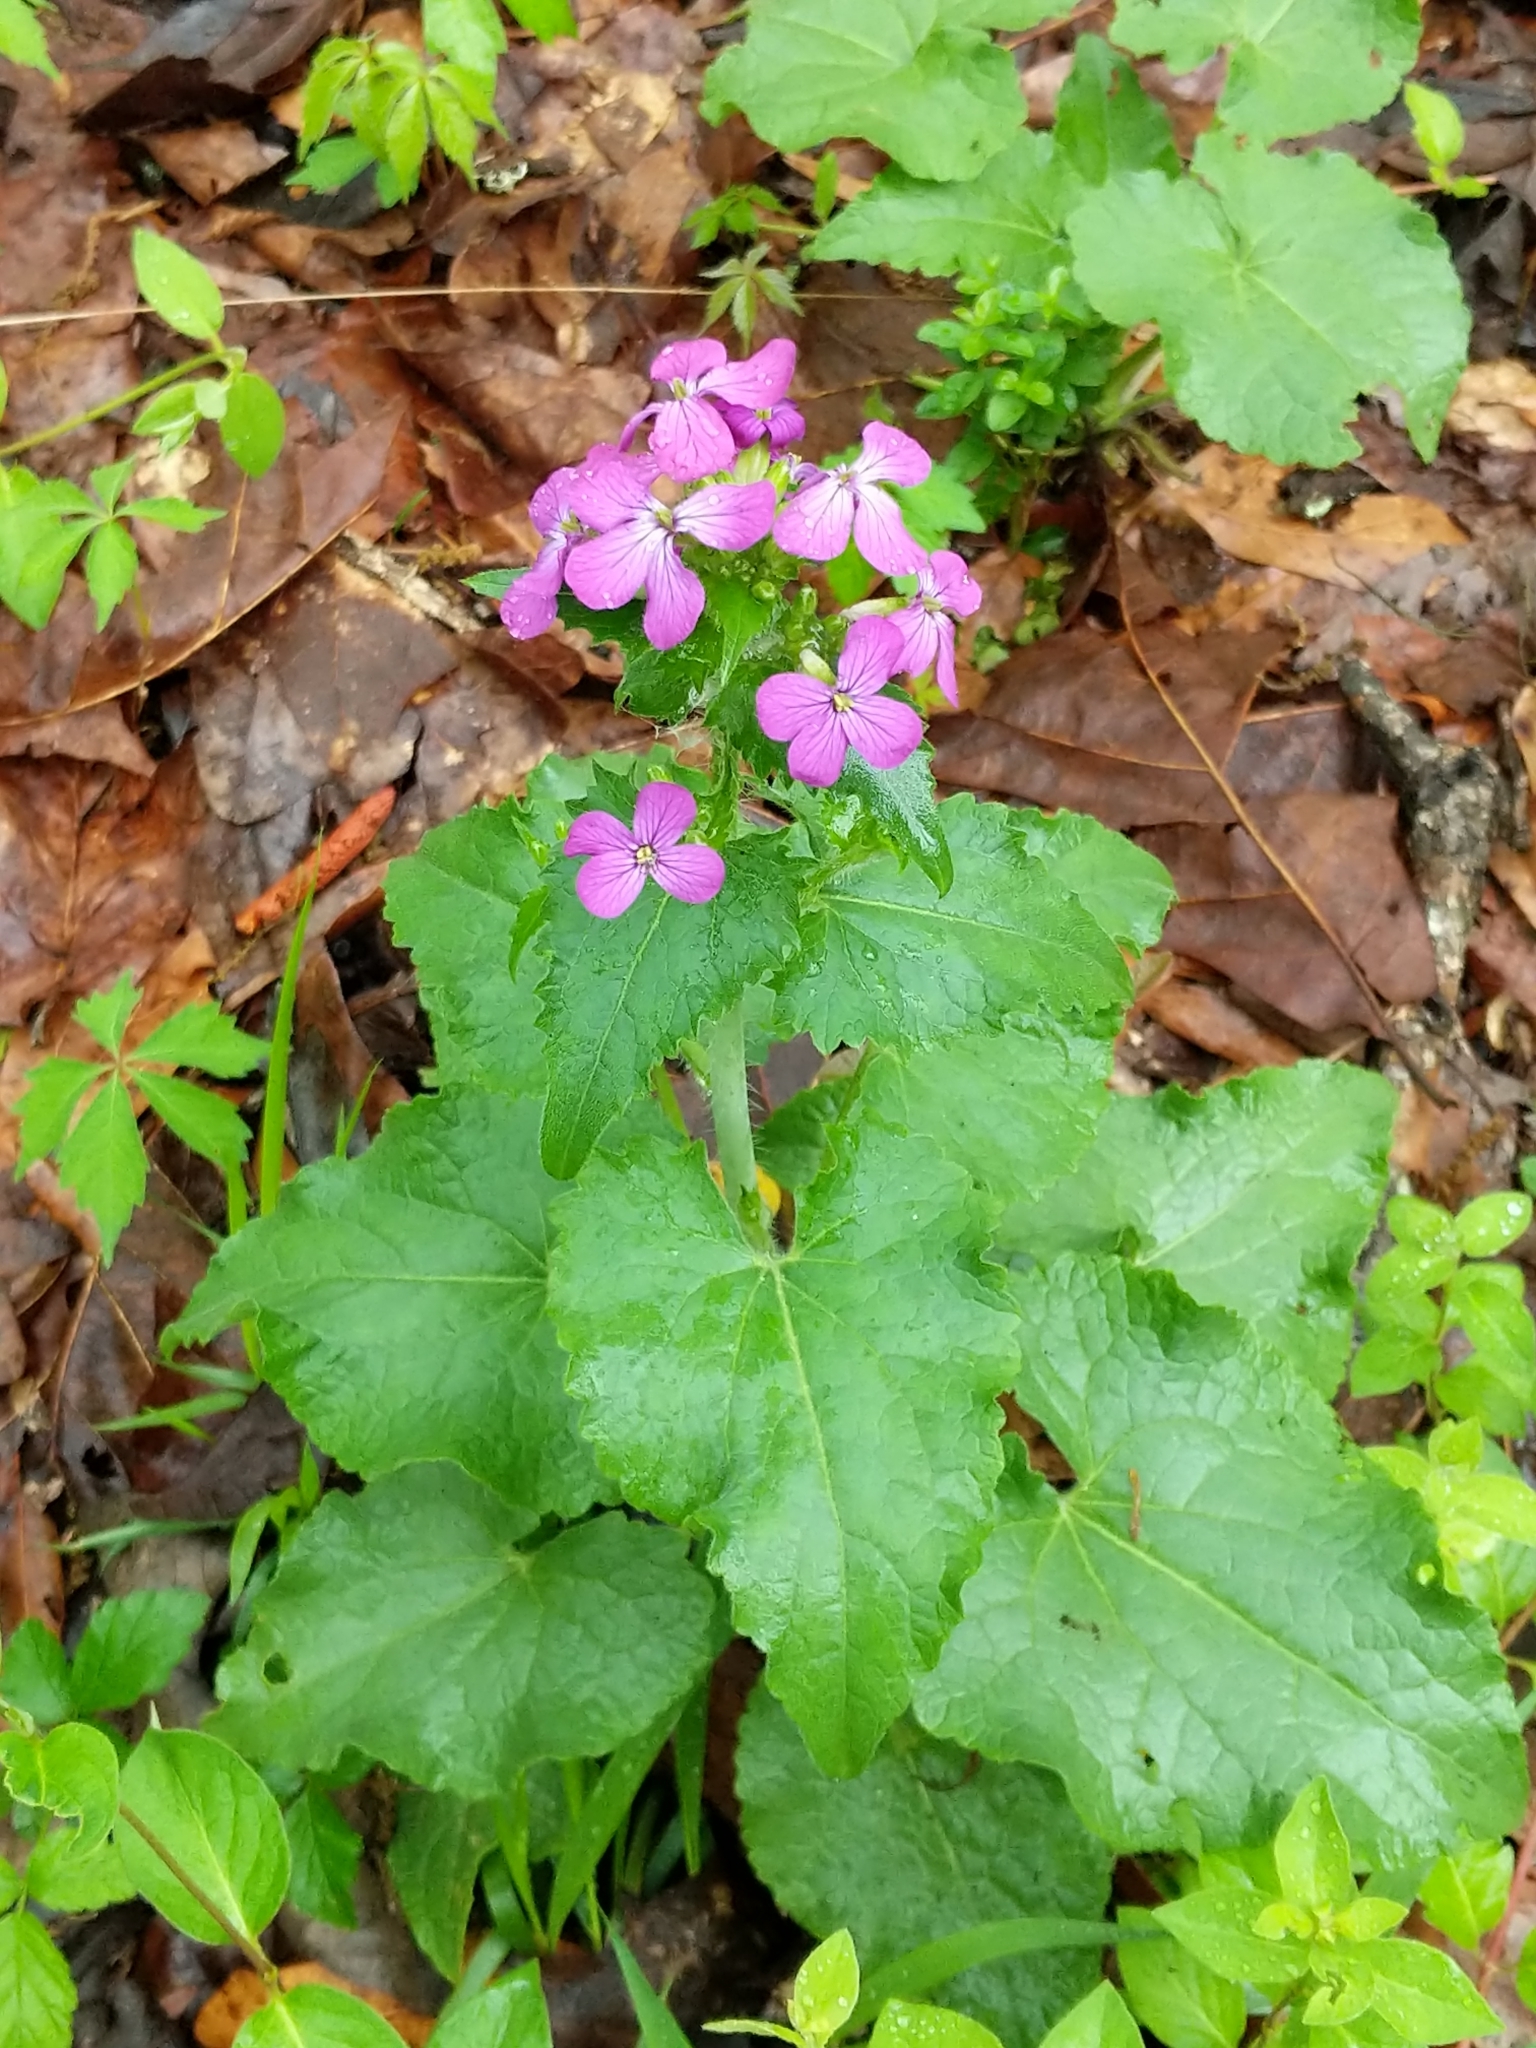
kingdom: Plantae
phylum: Tracheophyta
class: Magnoliopsida
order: Brassicales
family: Brassicaceae
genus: Lunaria
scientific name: Lunaria annua
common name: Honesty
